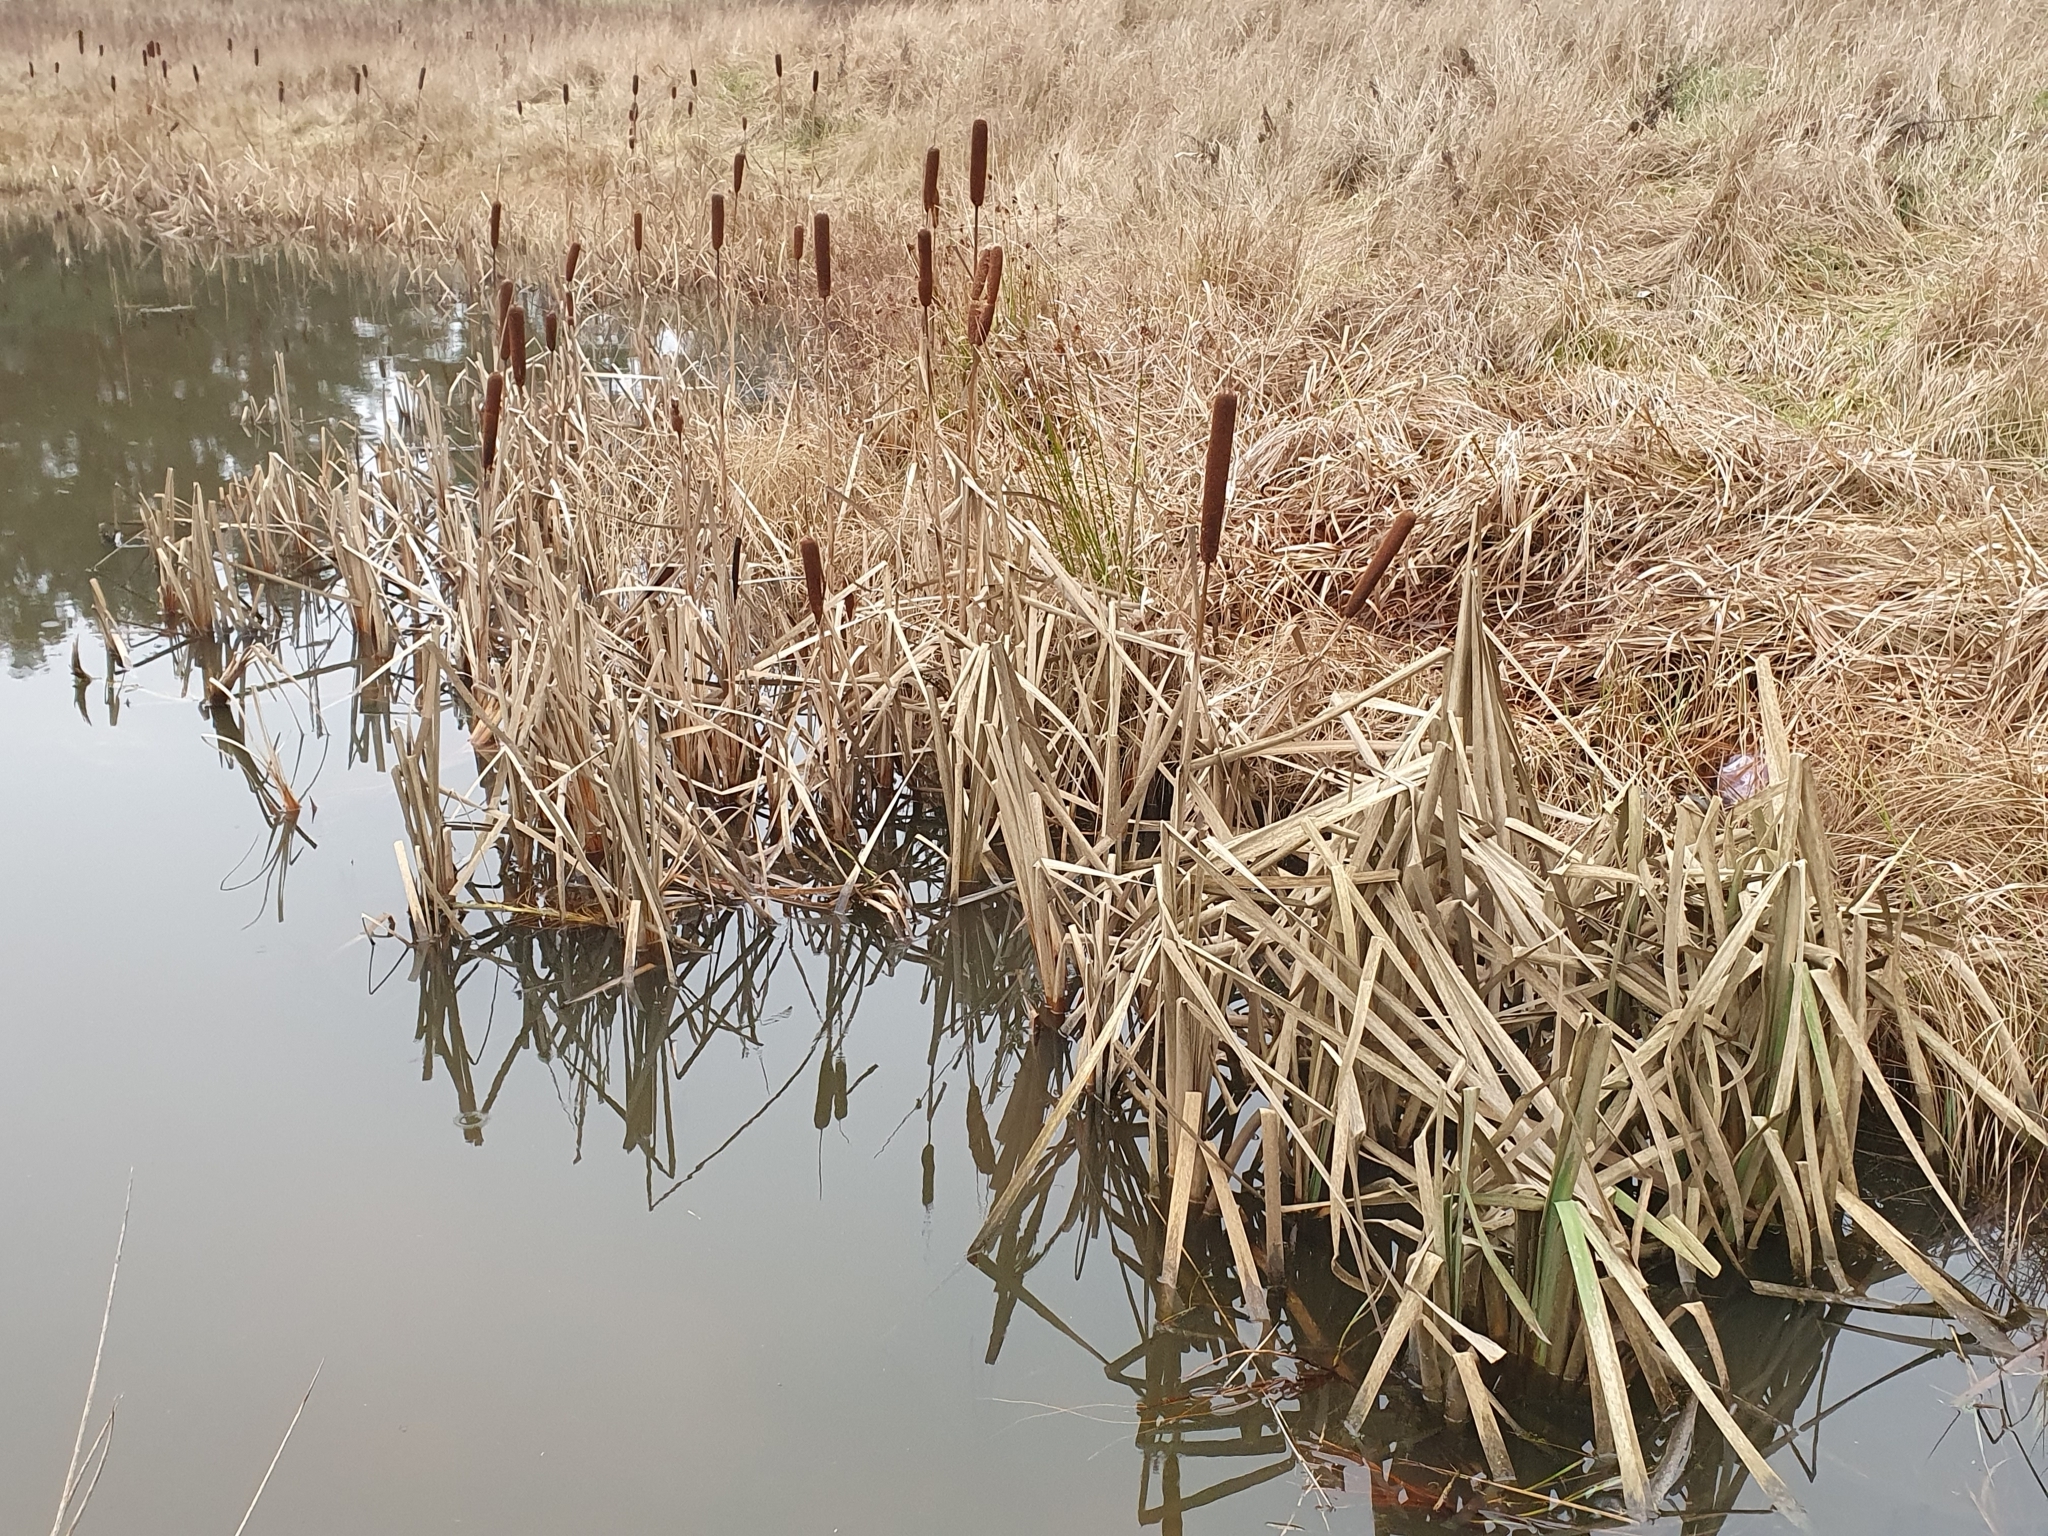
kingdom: Plantae
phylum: Tracheophyta
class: Liliopsida
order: Poales
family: Typhaceae
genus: Typha
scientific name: Typha latifolia
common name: Broadleaf cattail
